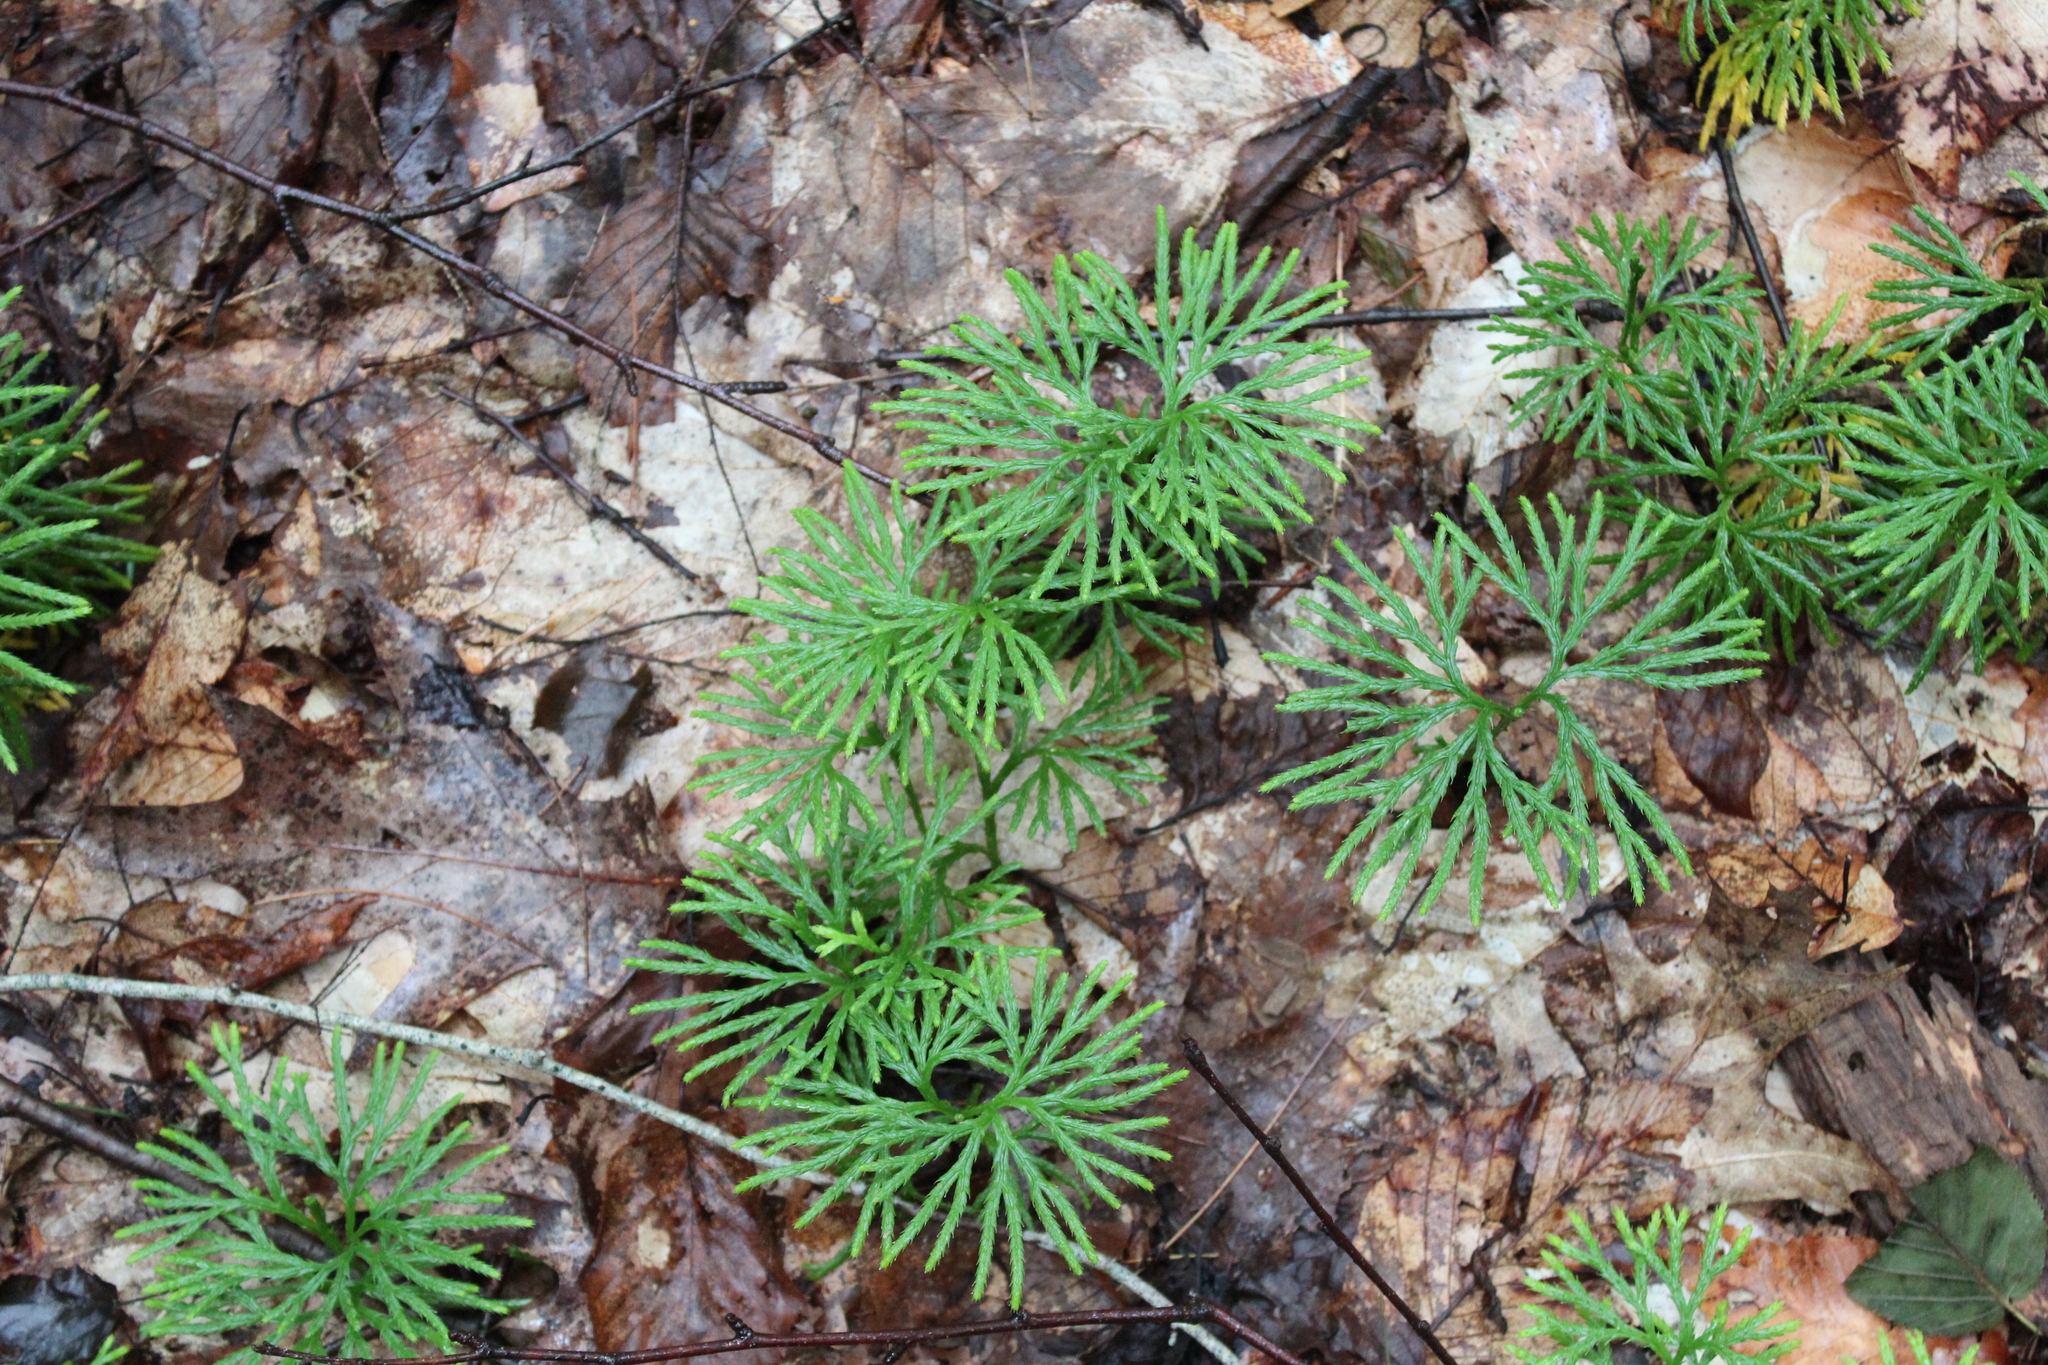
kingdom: Plantae
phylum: Tracheophyta
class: Lycopodiopsida
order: Lycopodiales
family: Lycopodiaceae
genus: Diphasiastrum
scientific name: Diphasiastrum digitatum
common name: Southern running-pine
